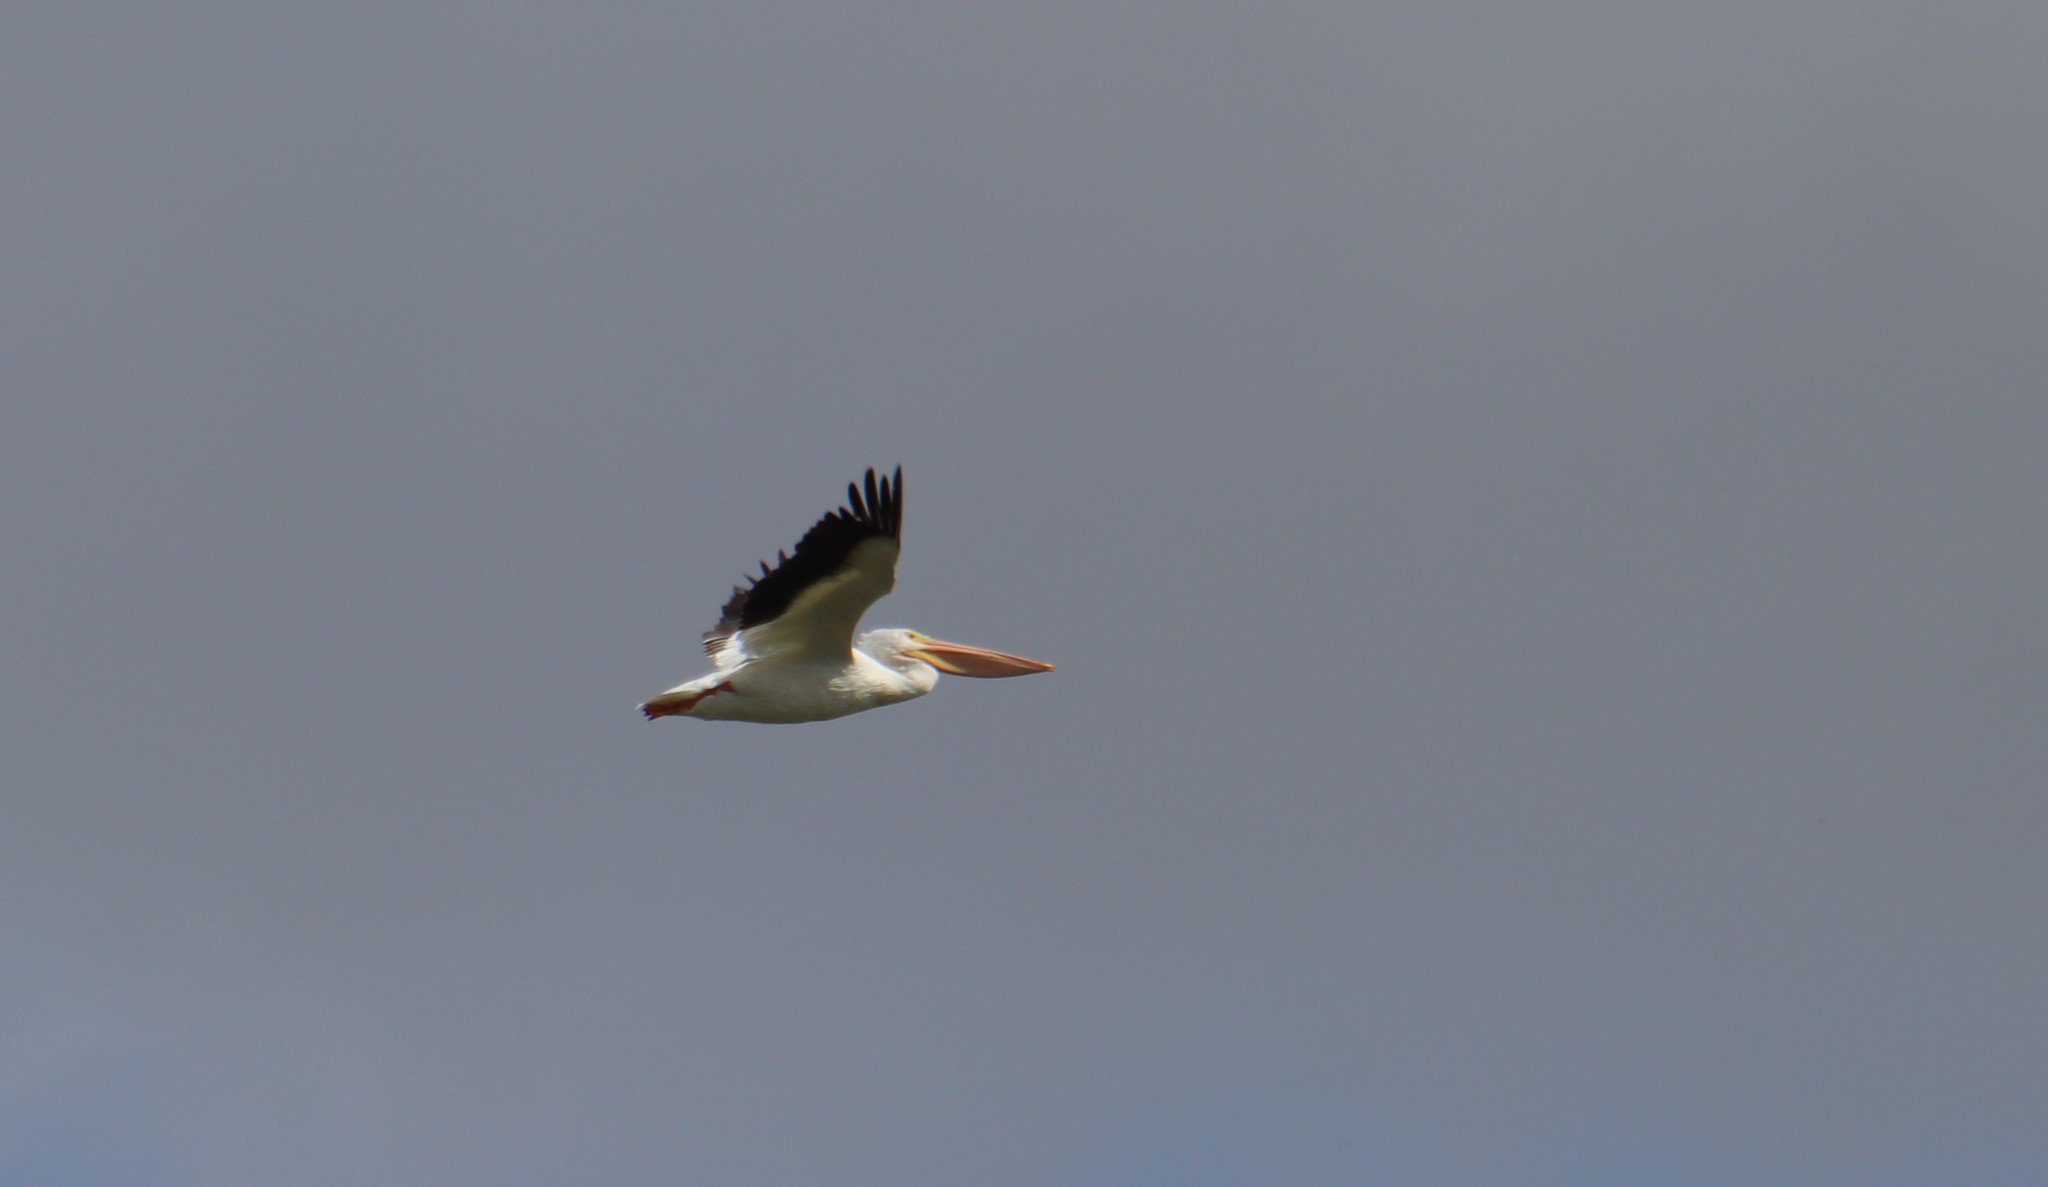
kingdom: Animalia
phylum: Chordata
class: Aves
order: Pelecaniformes
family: Pelecanidae
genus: Pelecanus
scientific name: Pelecanus erythrorhynchos
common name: American white pelican
